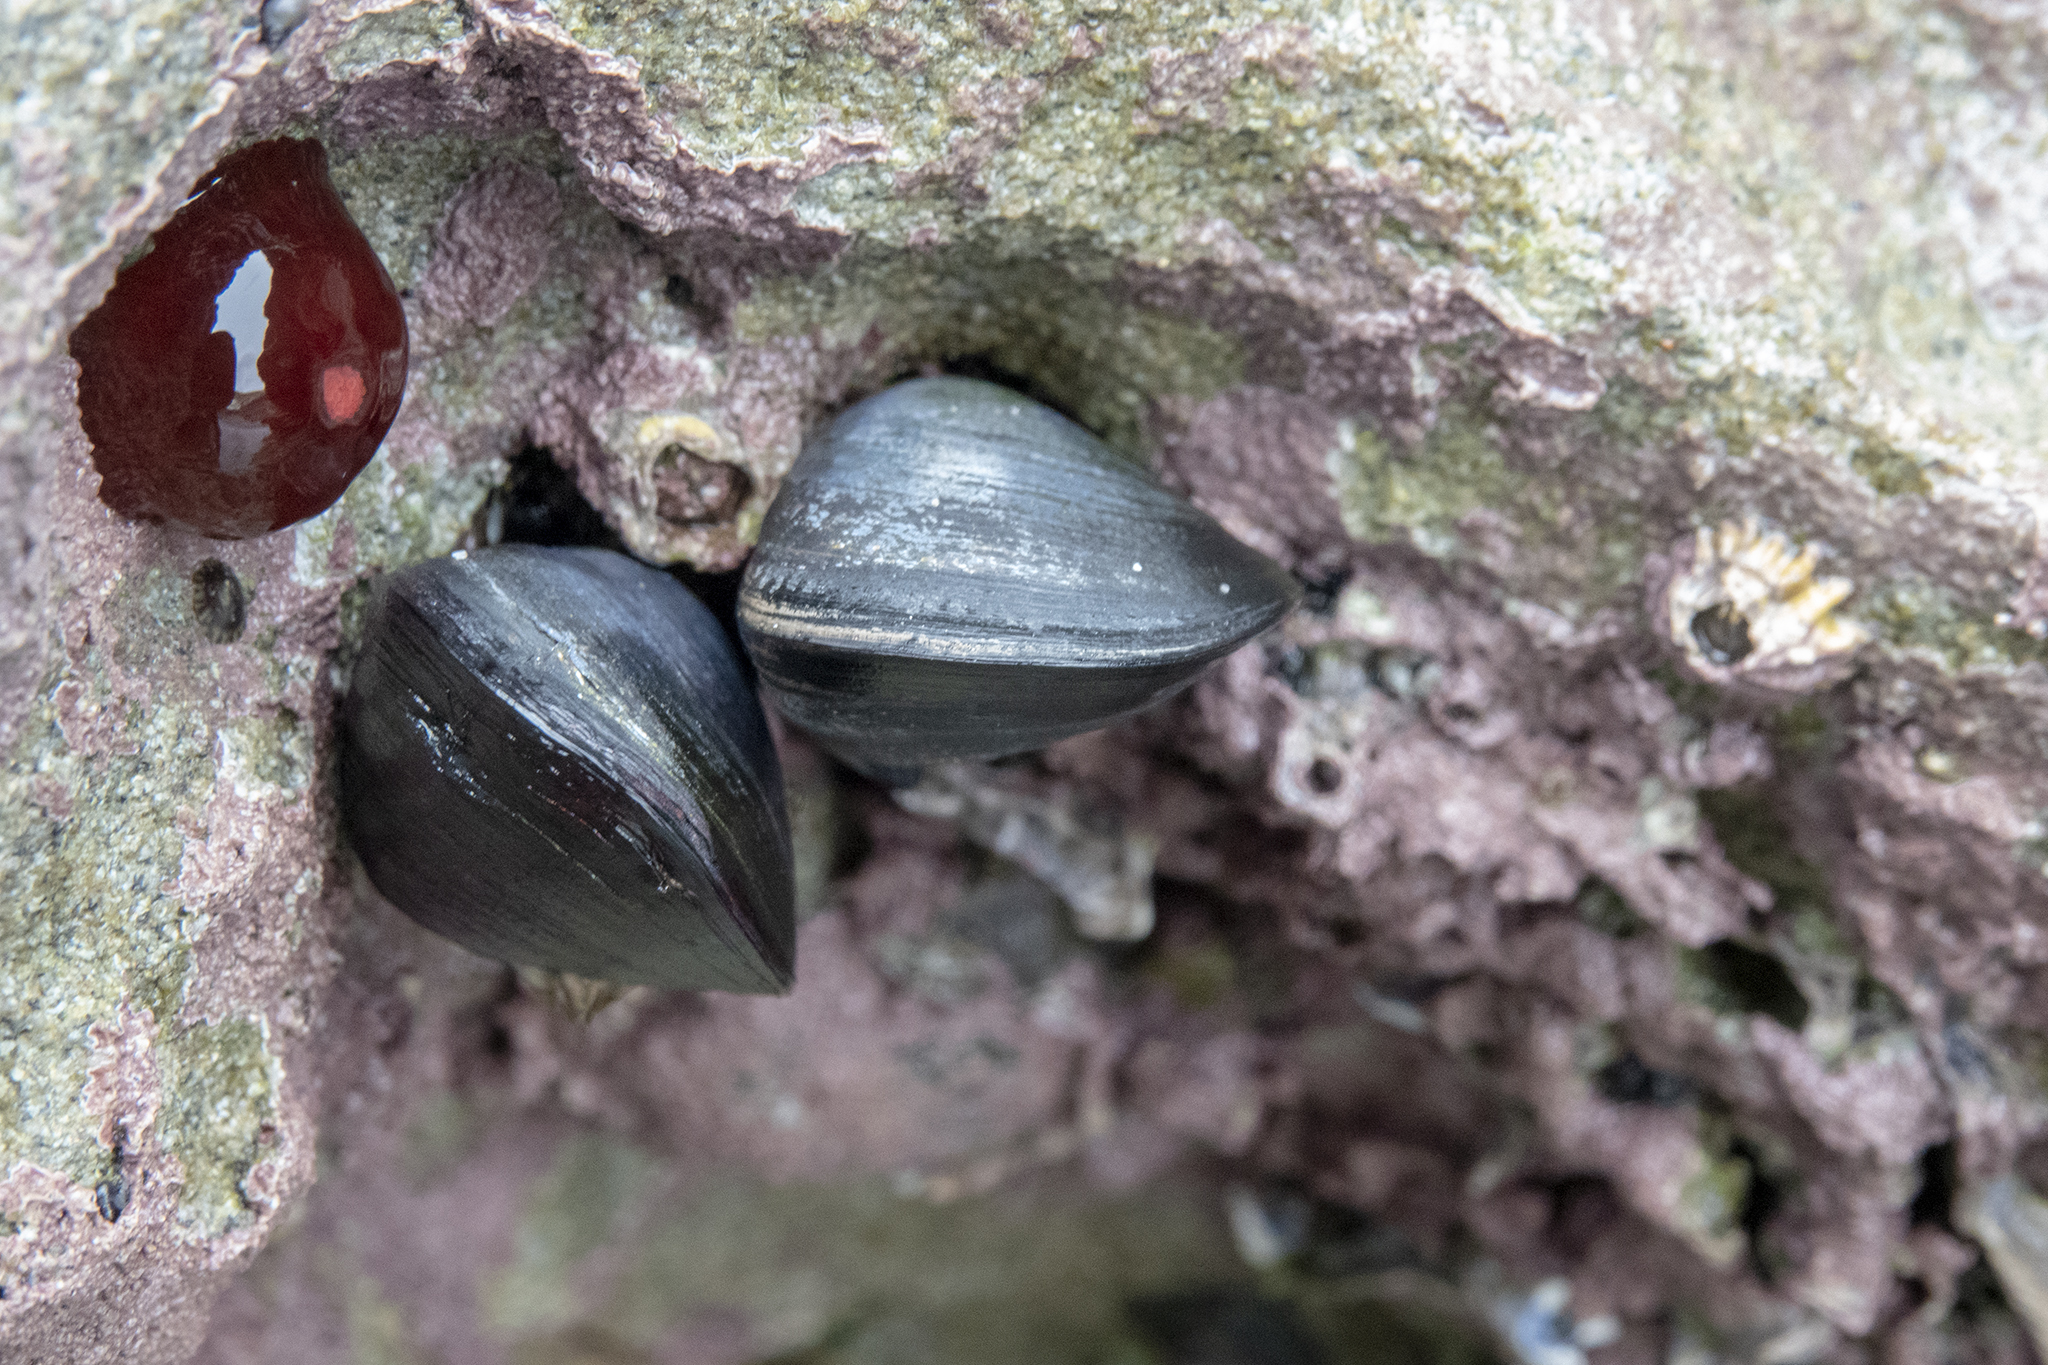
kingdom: Animalia
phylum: Mollusca
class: Bivalvia
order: Mytilida
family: Mytilidae
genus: Mytilus
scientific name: Mytilus planulatus
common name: Australian mussel
